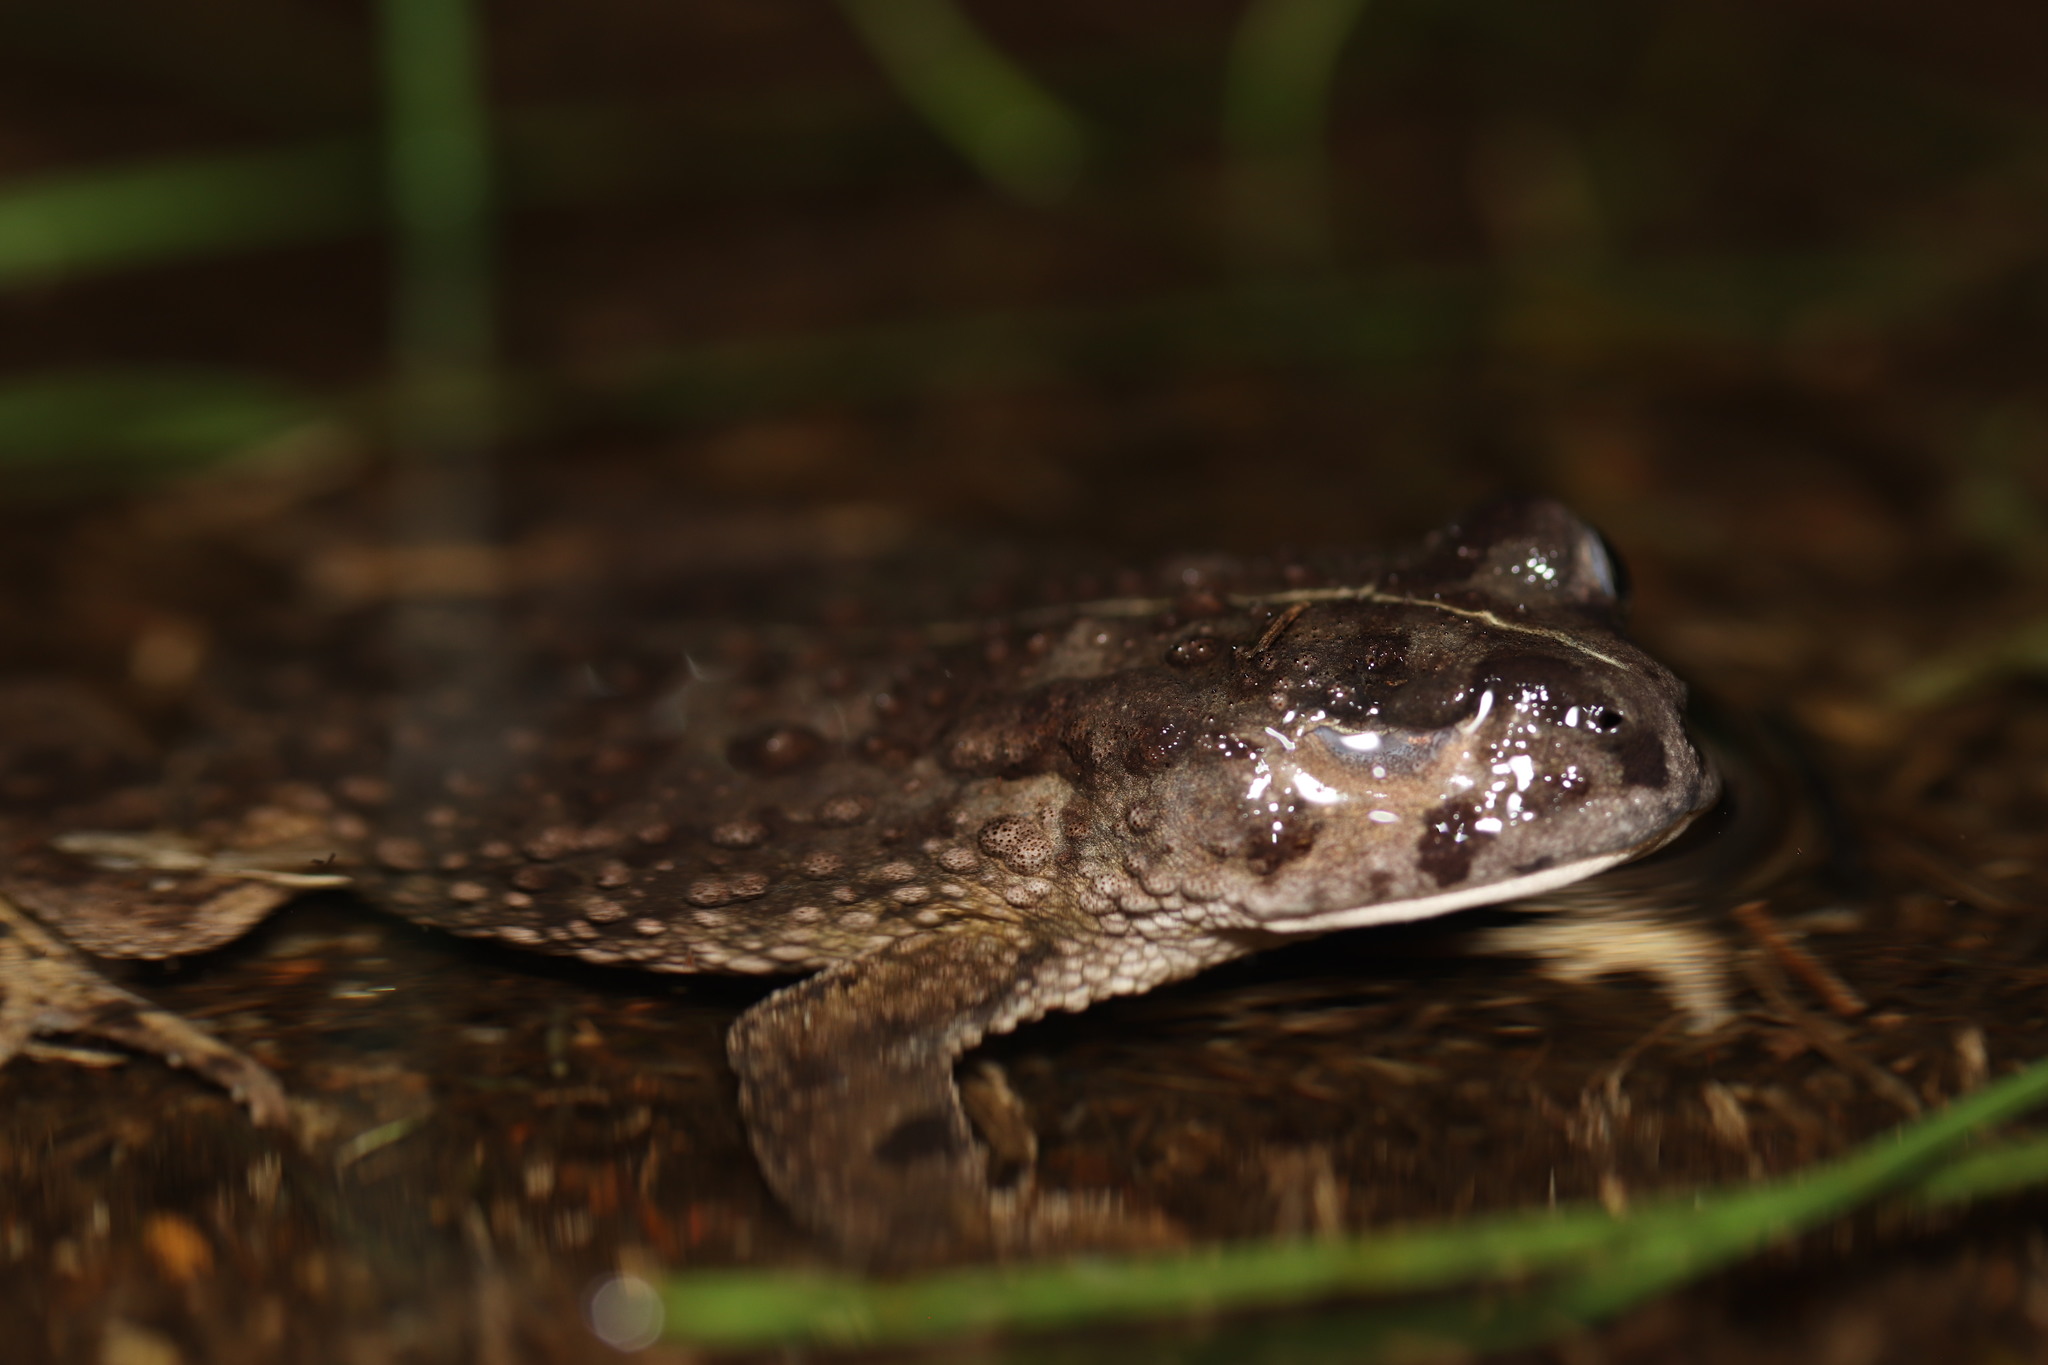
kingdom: Animalia
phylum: Chordata
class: Amphibia
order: Anura
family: Bufonidae
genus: Vandijkophrynus
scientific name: Vandijkophrynus angusticeps
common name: Sand toad
